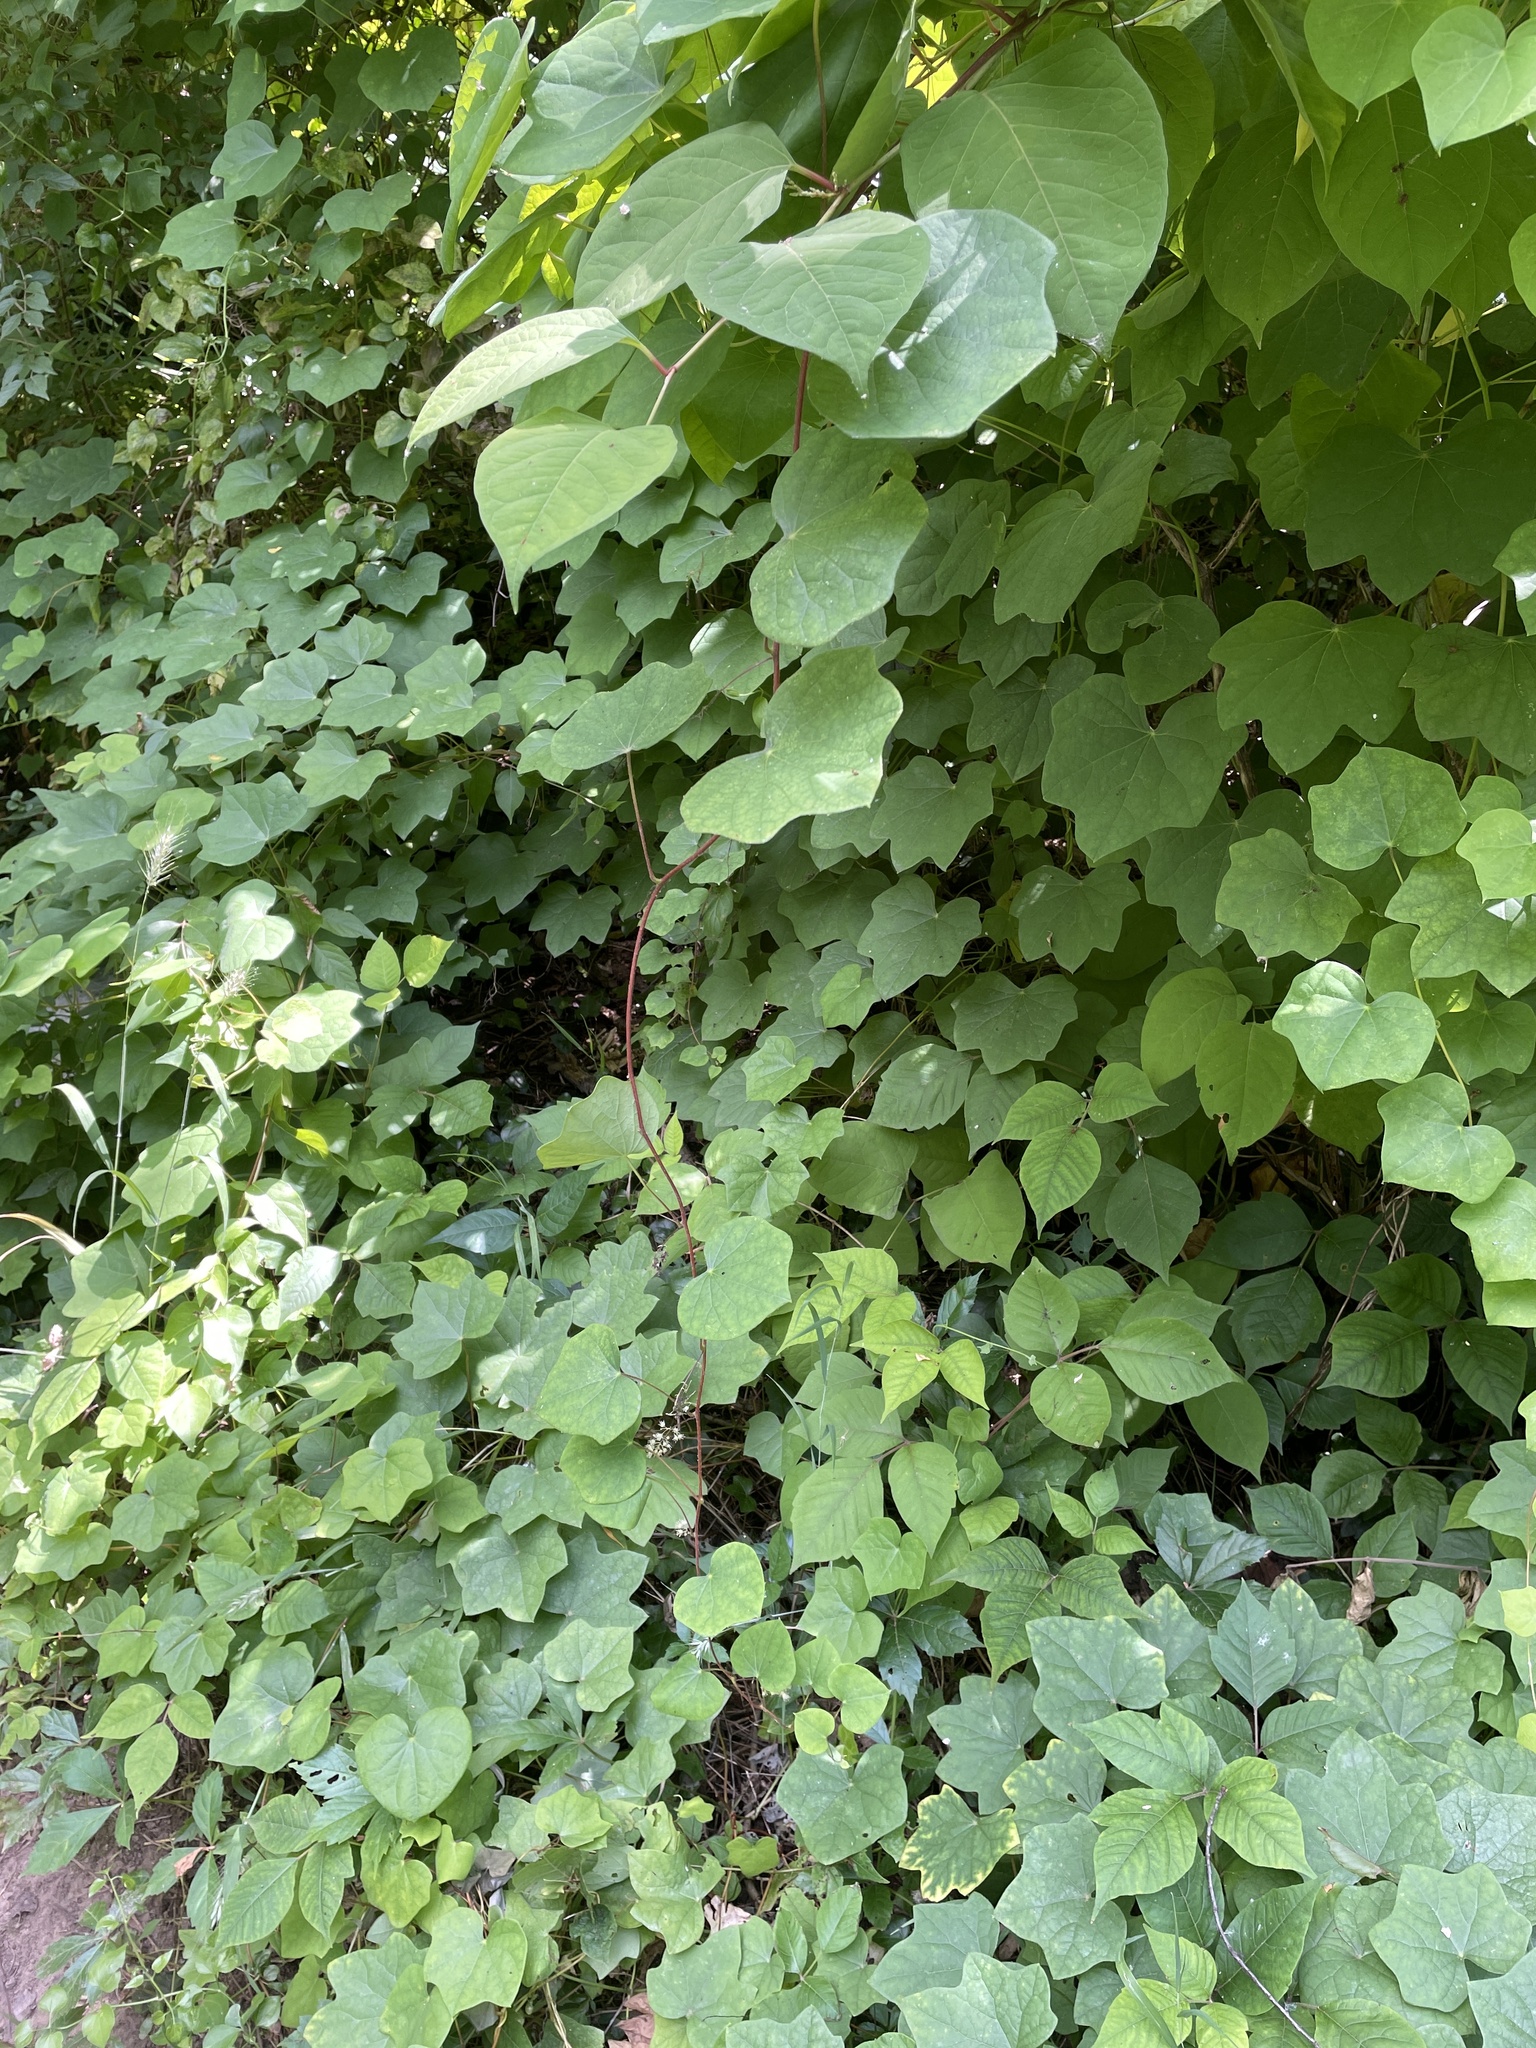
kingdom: Plantae
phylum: Tracheophyta
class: Magnoliopsida
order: Ranunculales
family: Menispermaceae
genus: Menispermum
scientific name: Menispermum canadense
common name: Moonseed
